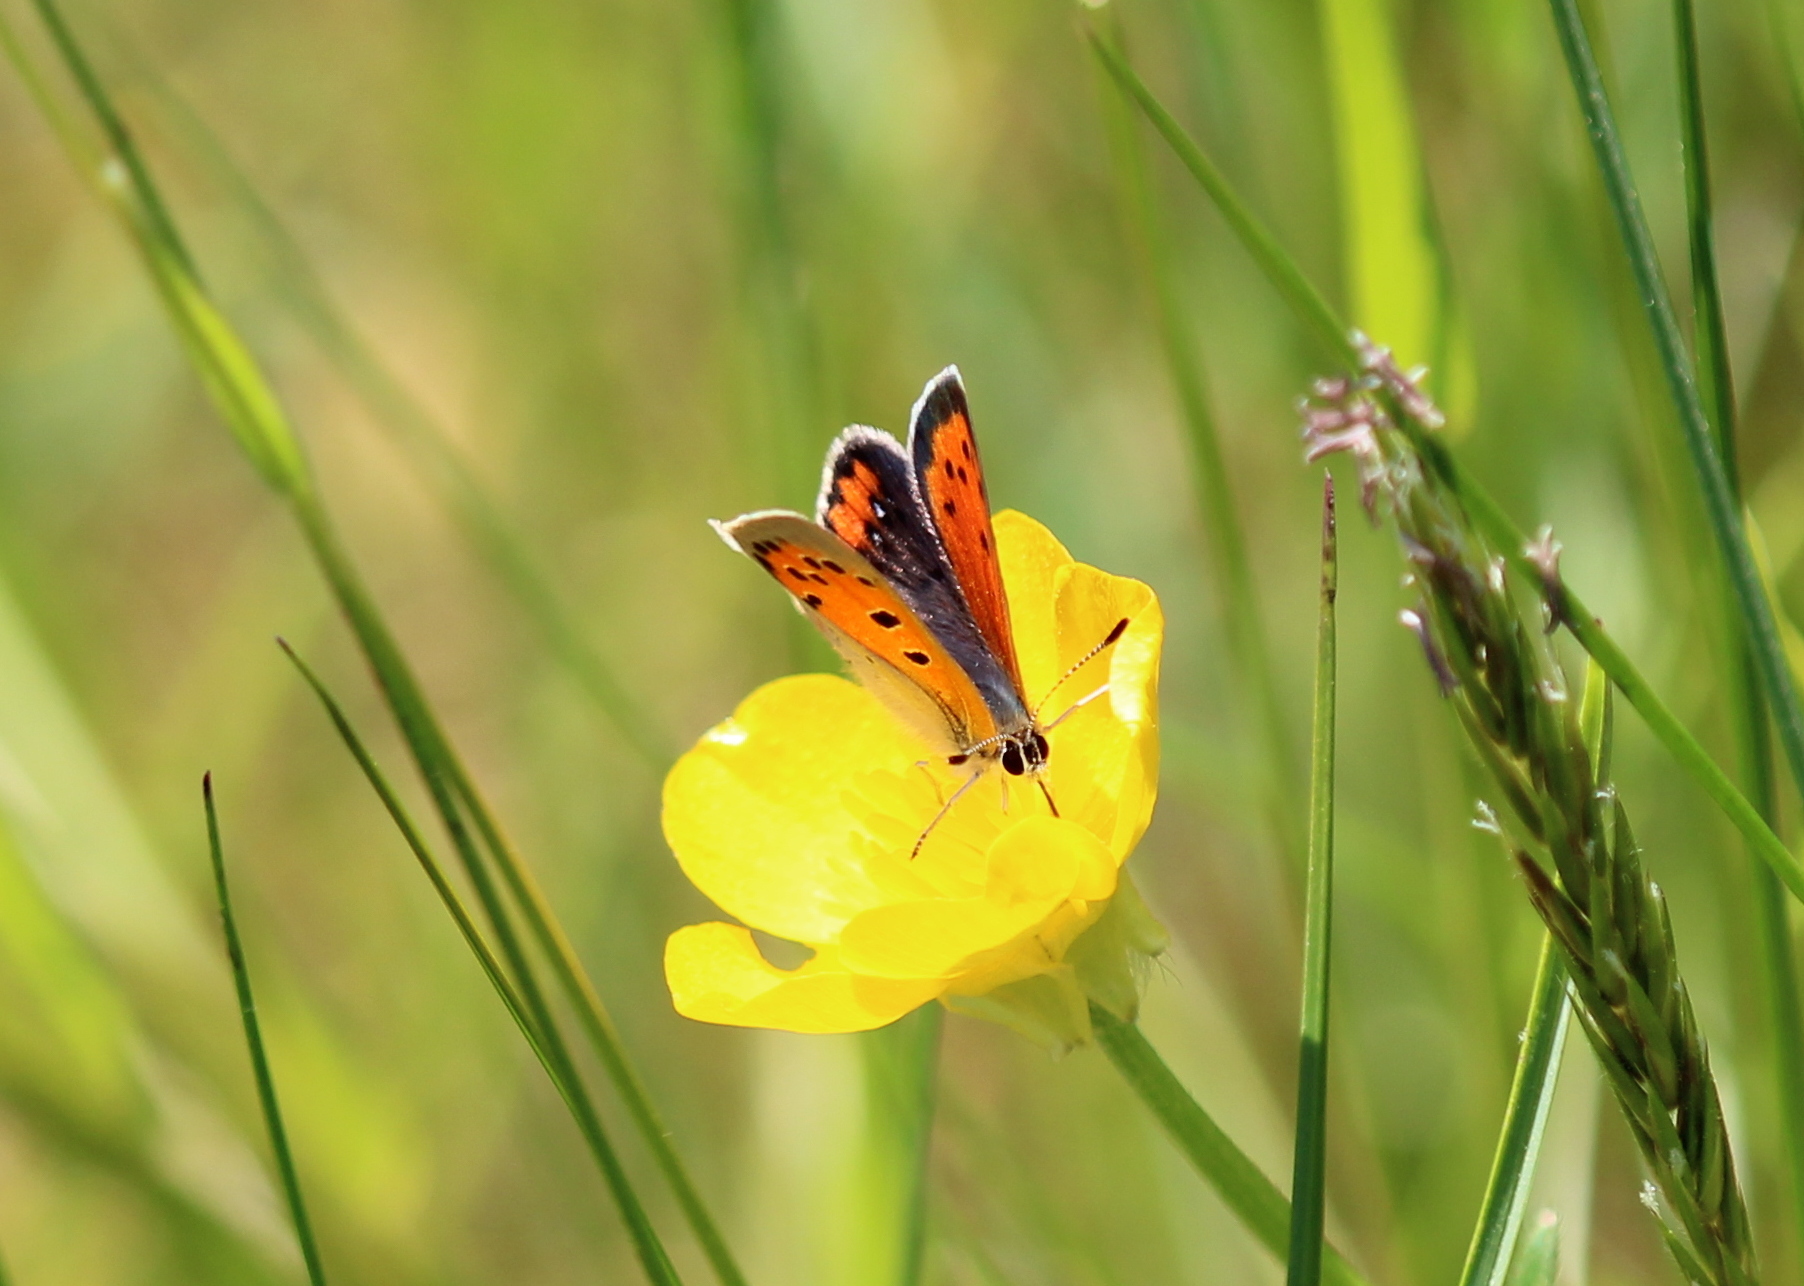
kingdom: Animalia
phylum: Arthropoda
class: Insecta
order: Lepidoptera
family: Lycaenidae
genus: Lycaena
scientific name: Lycaena hypophlaeas
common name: American copper
